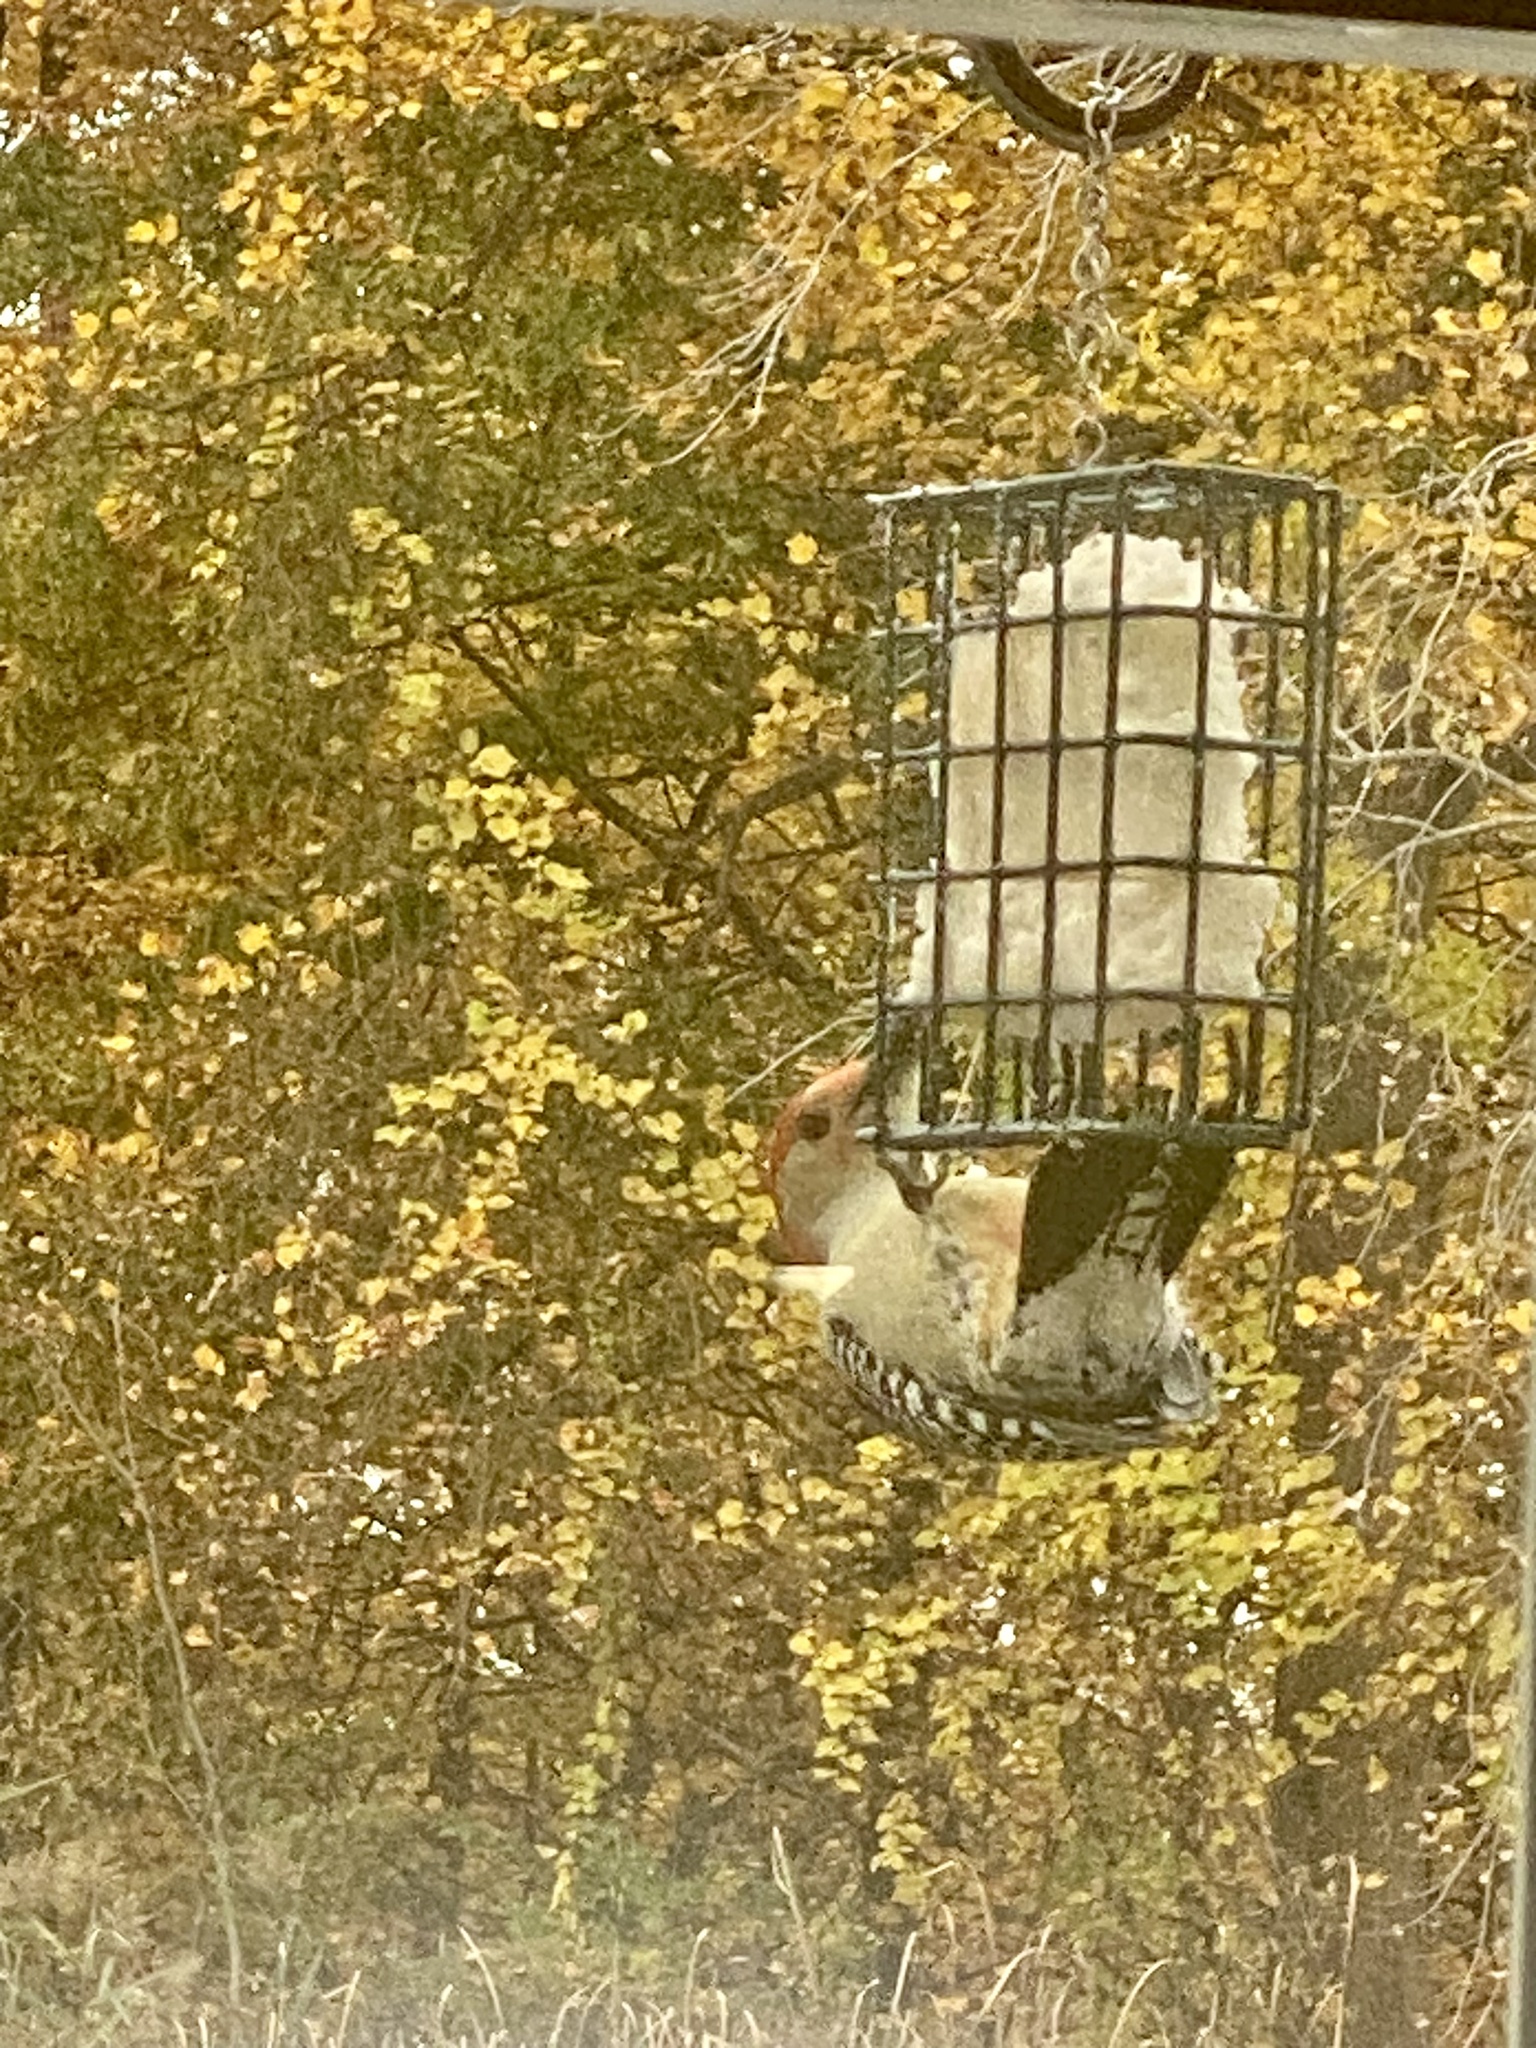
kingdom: Animalia
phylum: Chordata
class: Aves
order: Piciformes
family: Picidae
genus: Melanerpes
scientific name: Melanerpes carolinus
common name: Red-bellied woodpecker
